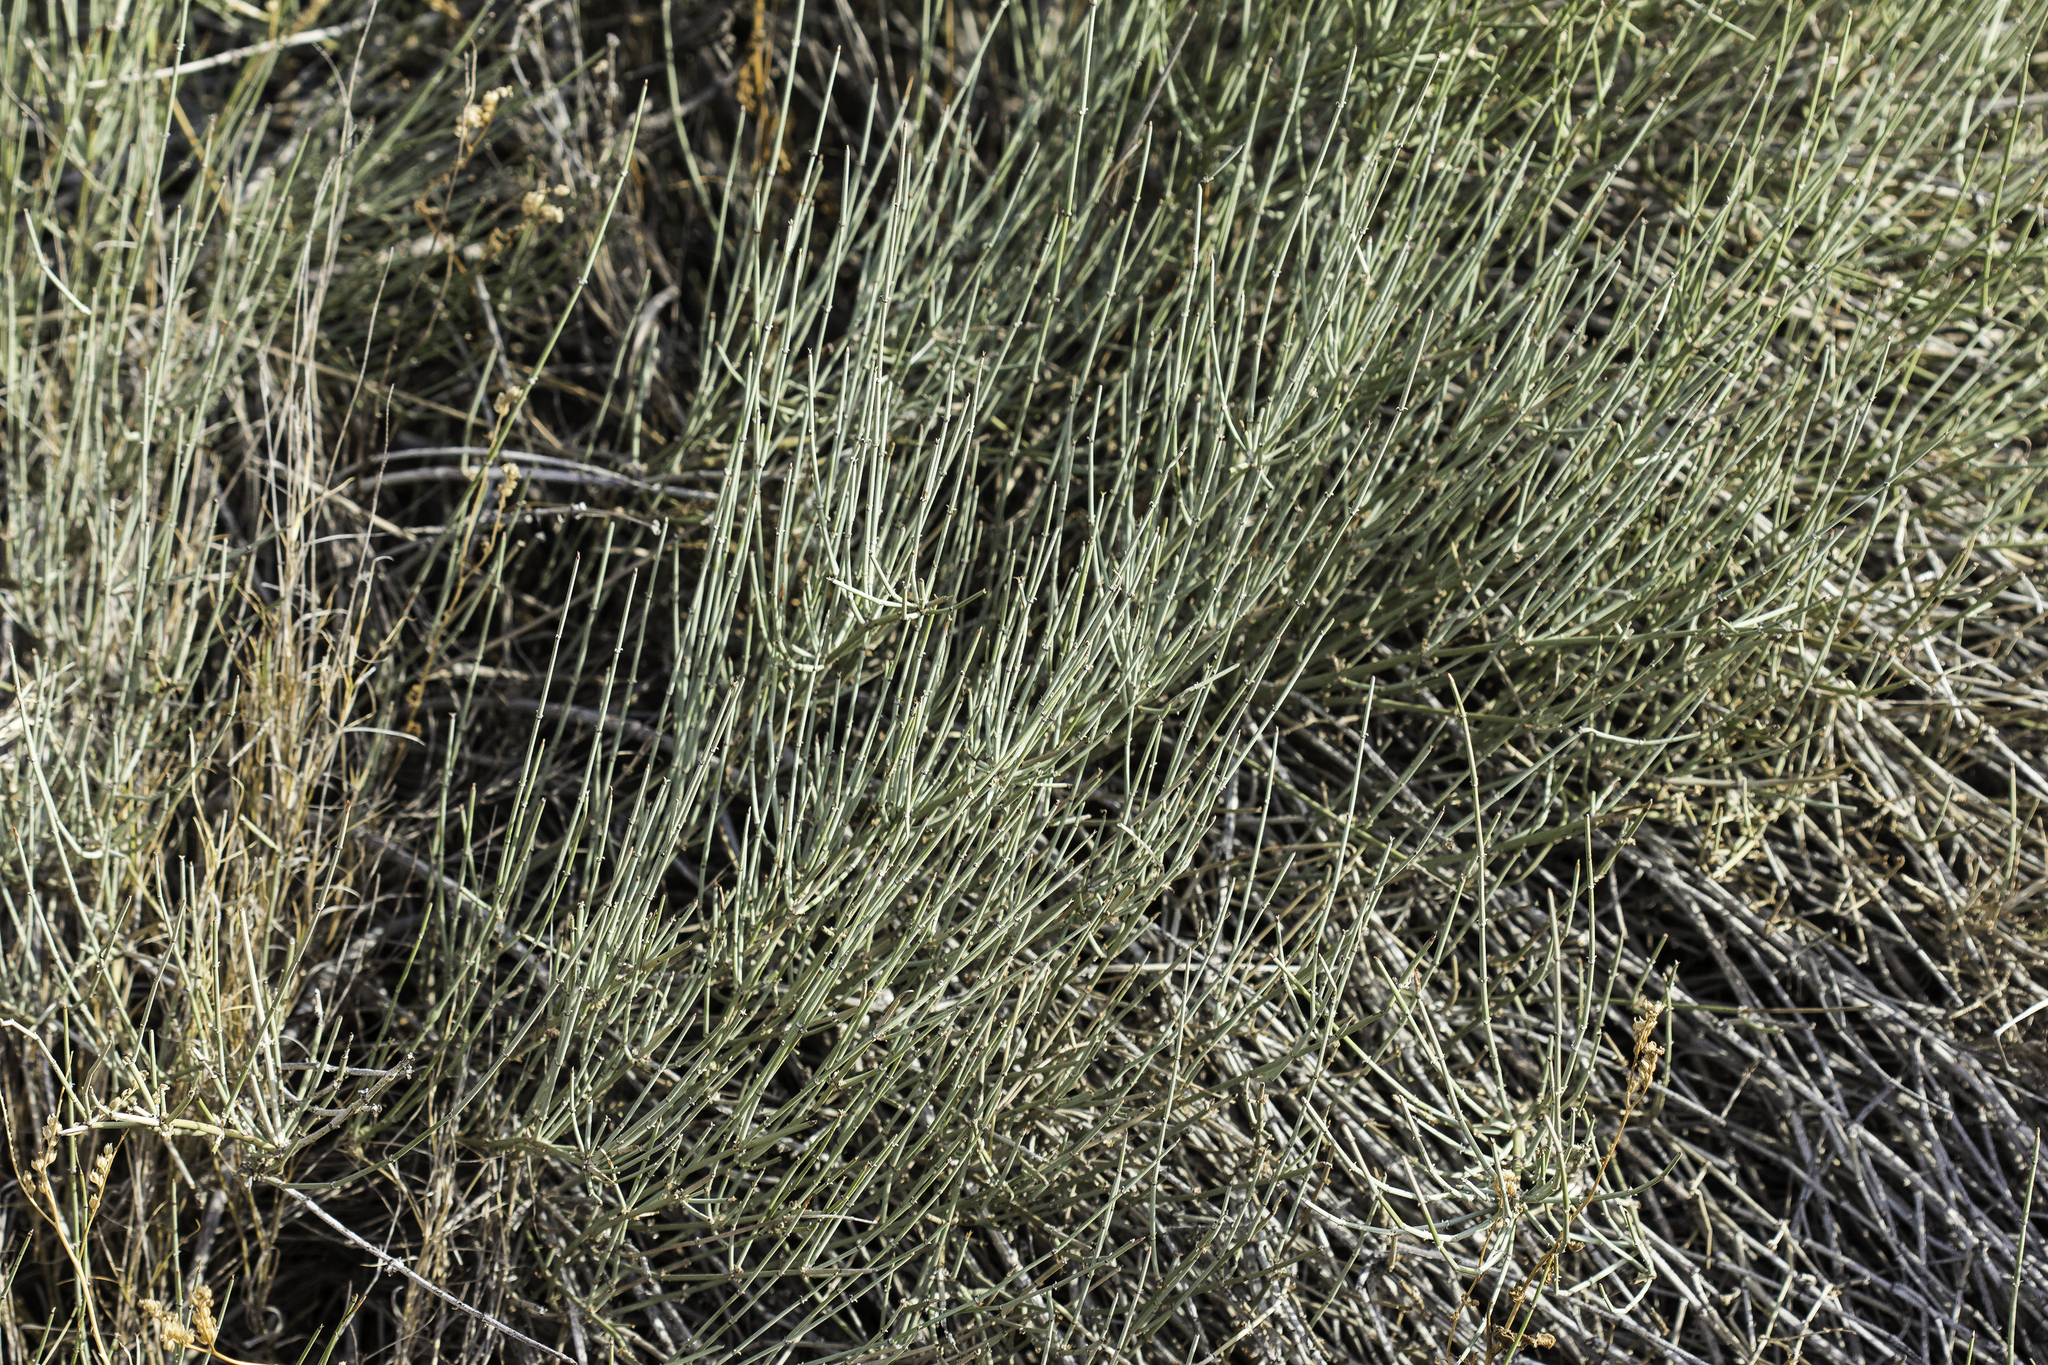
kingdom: Plantae
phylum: Tracheophyta
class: Gnetopsida
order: Ephedrales
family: Ephedraceae
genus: Ephedra
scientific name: Ephedra torreyana
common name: Torrey ephedra
